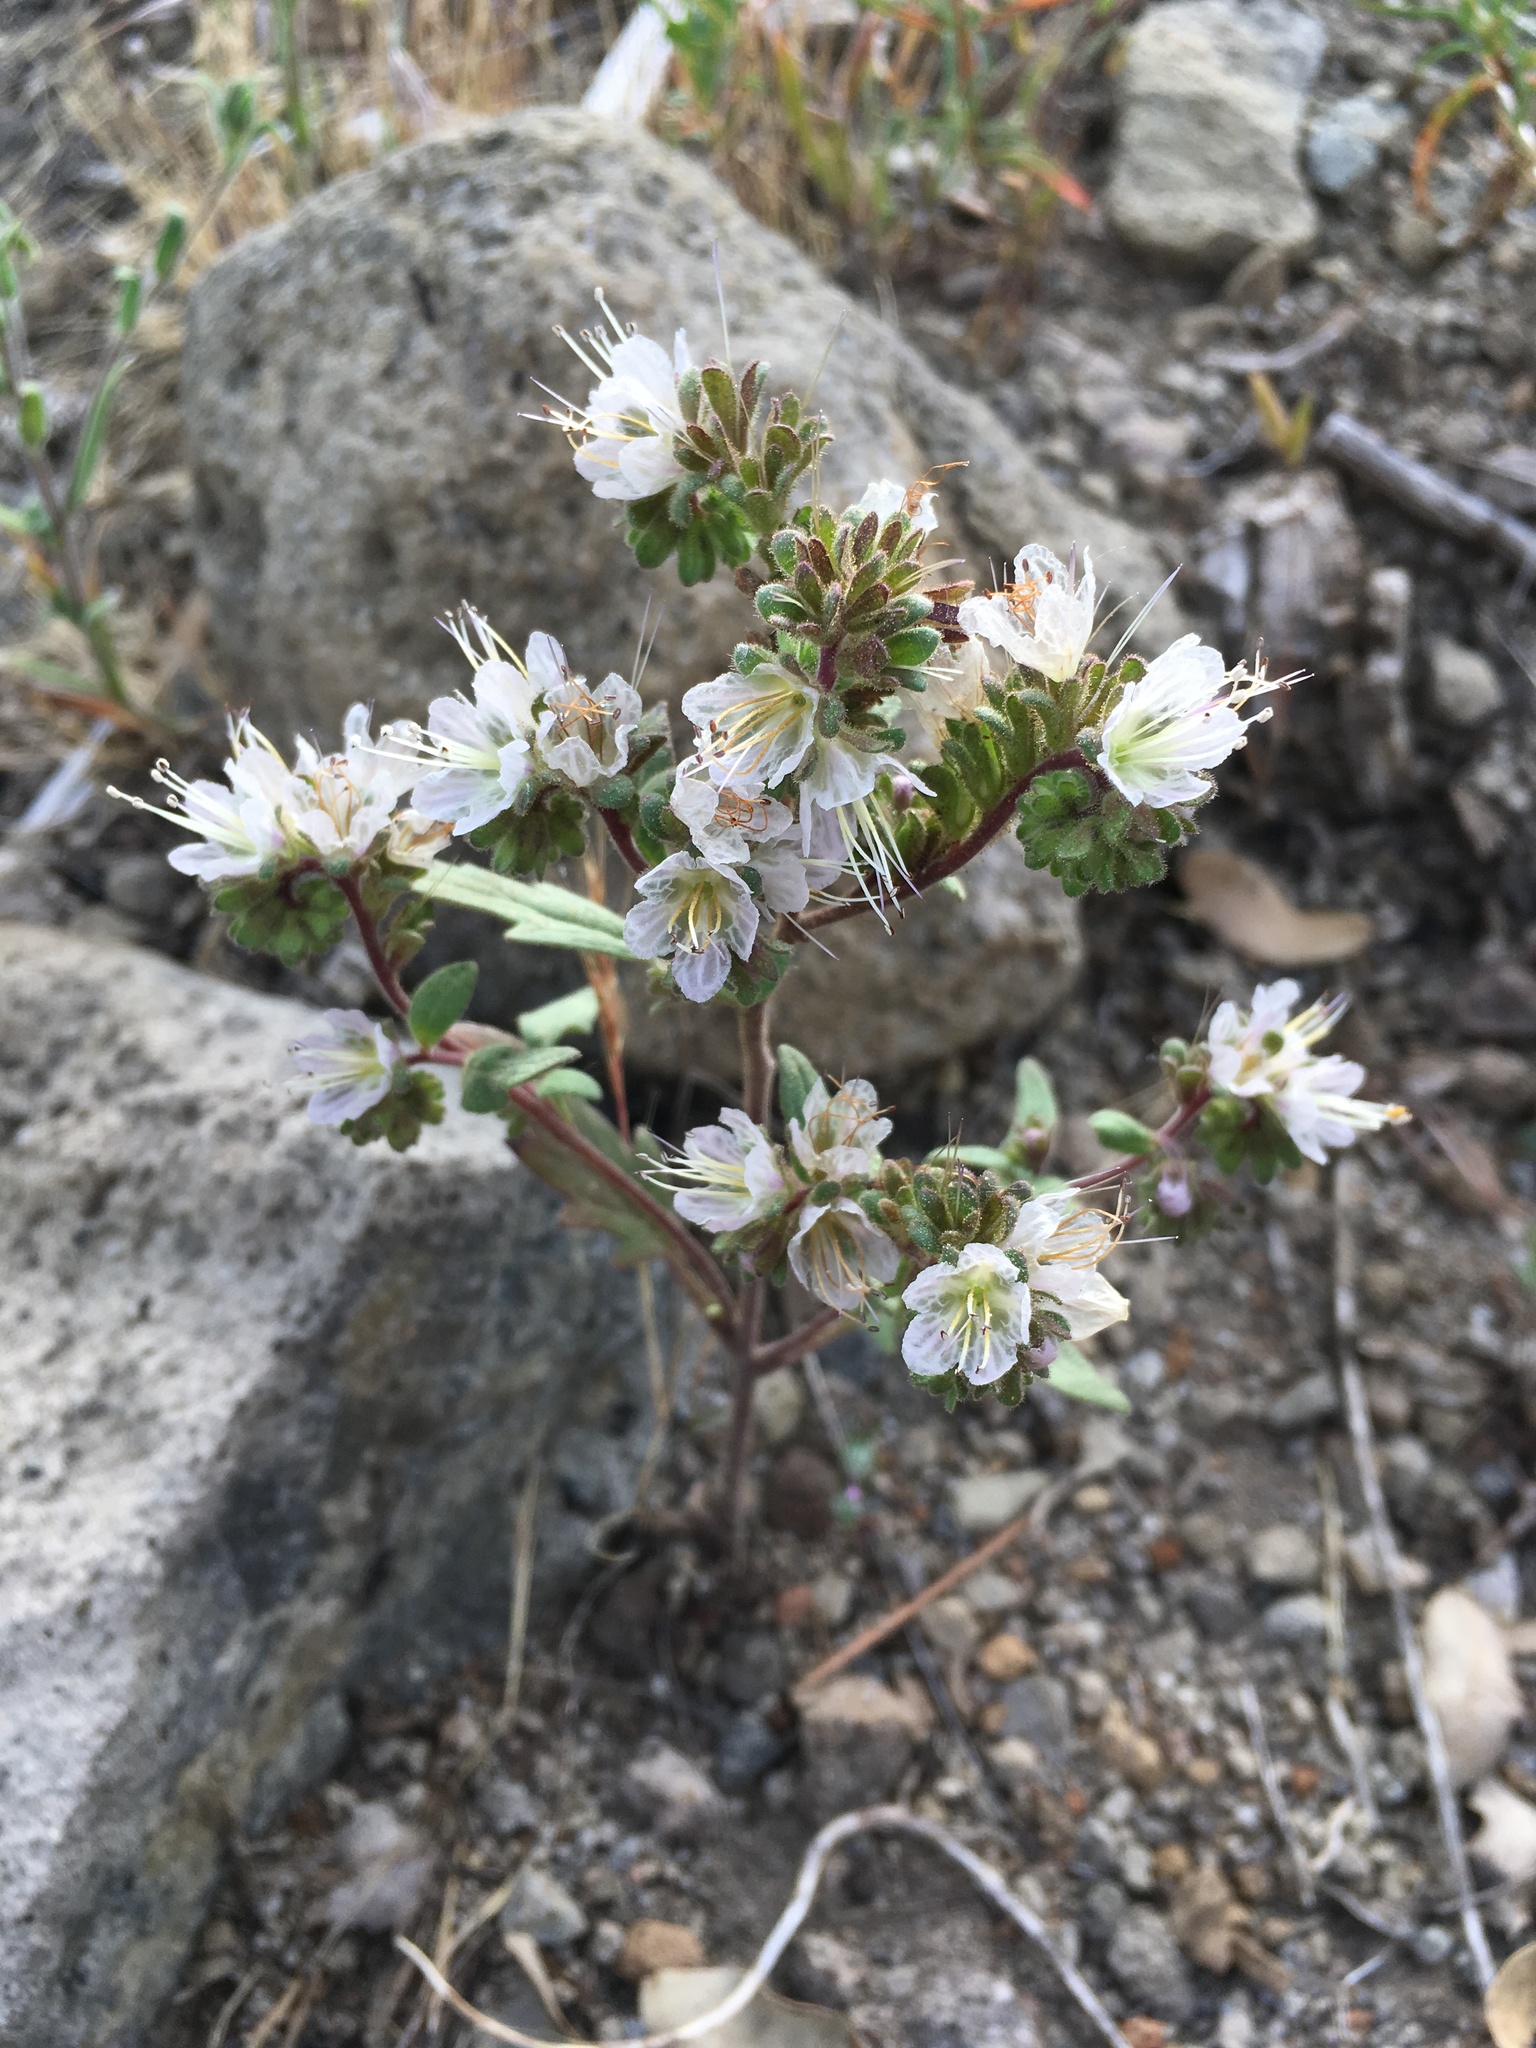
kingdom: Plantae
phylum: Tracheophyta
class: Magnoliopsida
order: Boraginales
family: Hydrophyllaceae
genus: Phacelia
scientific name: Phacelia purpusii
